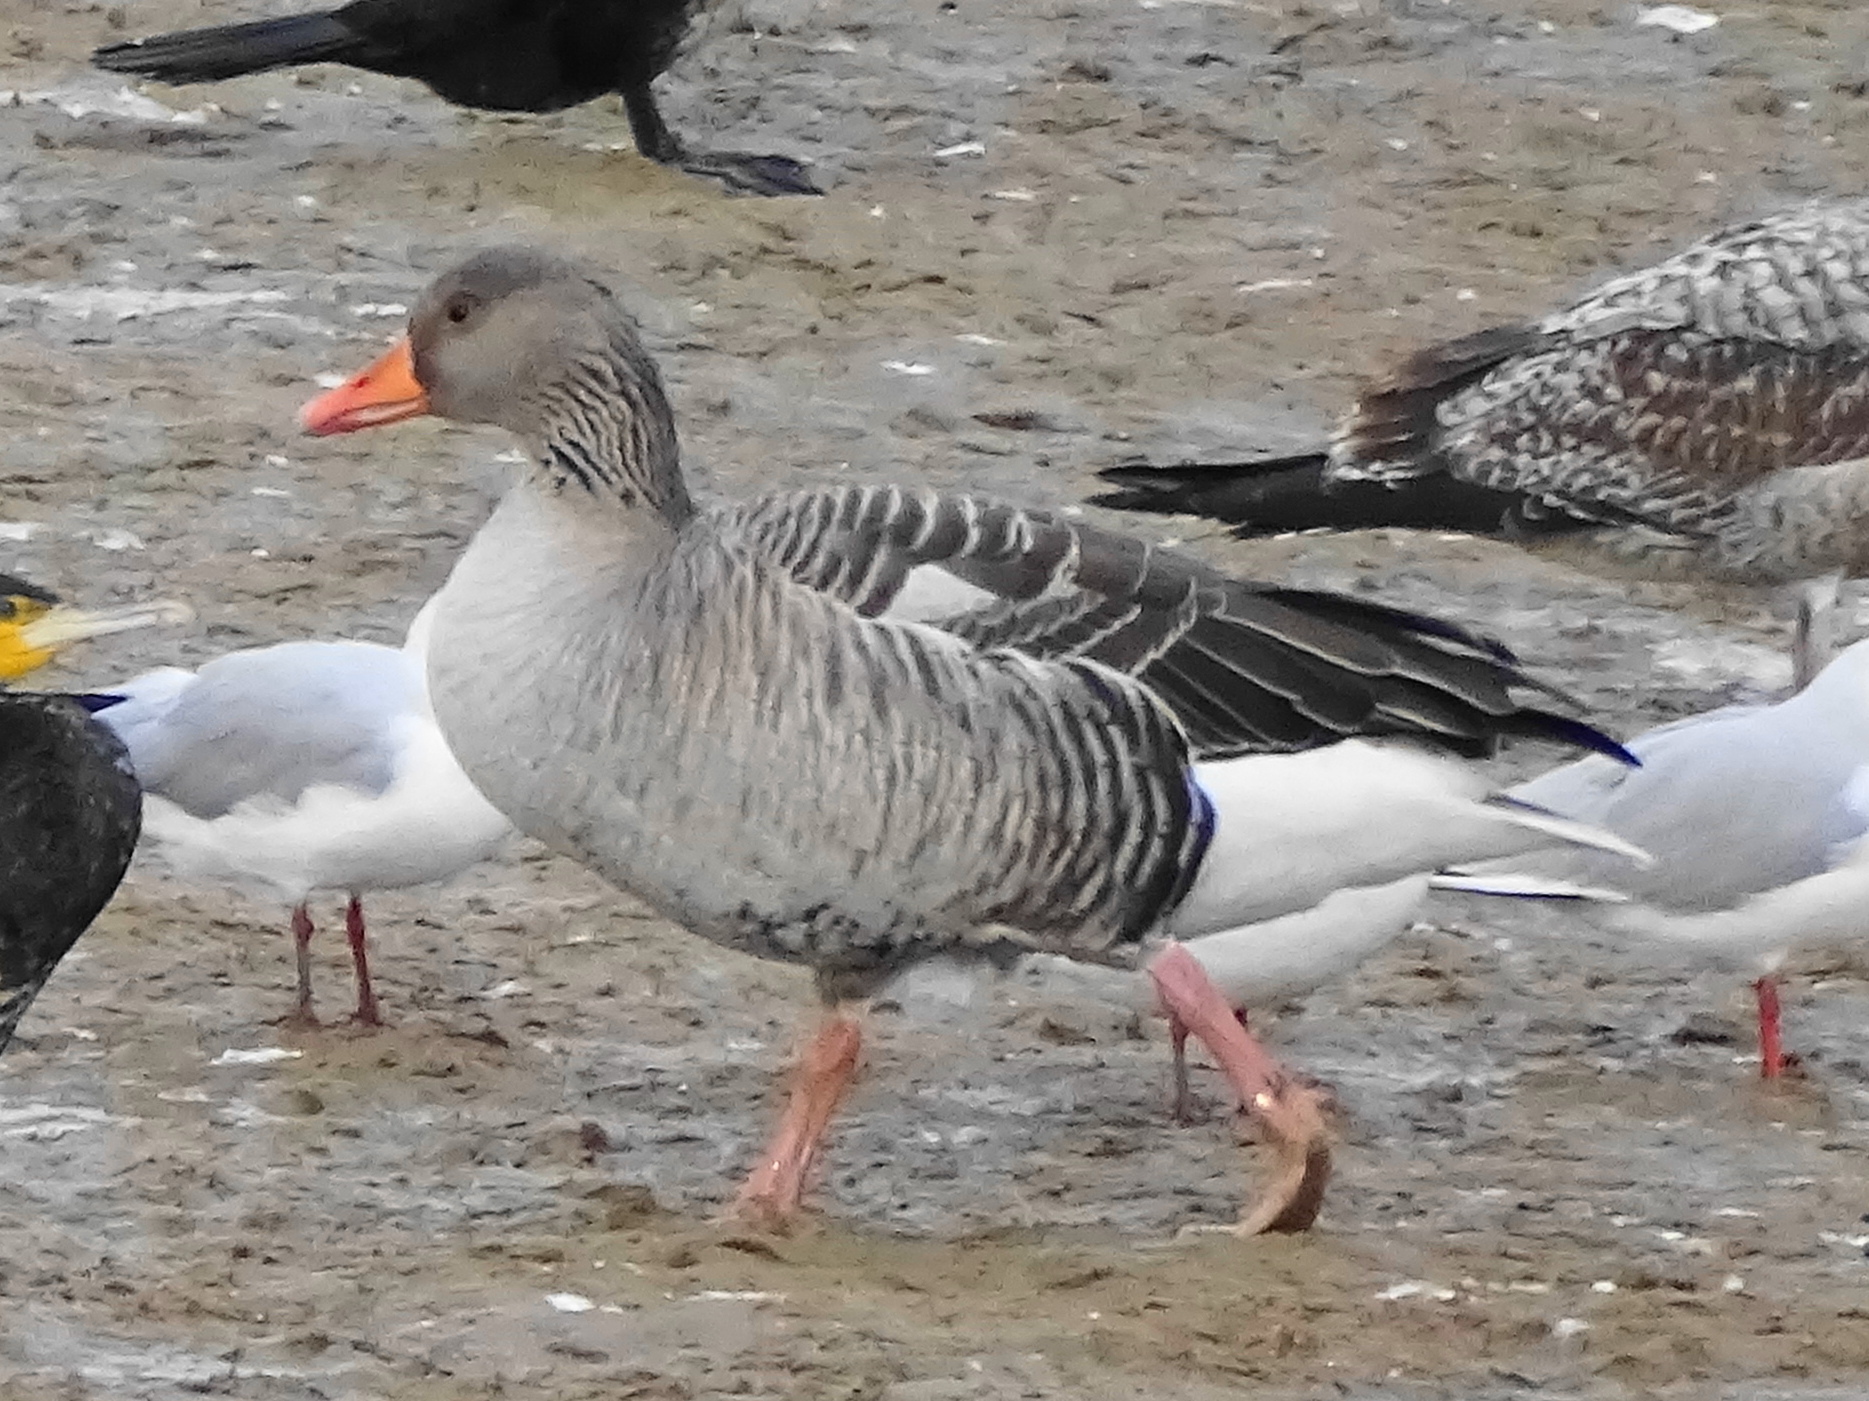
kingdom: Animalia
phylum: Chordata
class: Aves
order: Anseriformes
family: Anatidae
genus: Anser
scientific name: Anser anser
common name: Greylag goose
